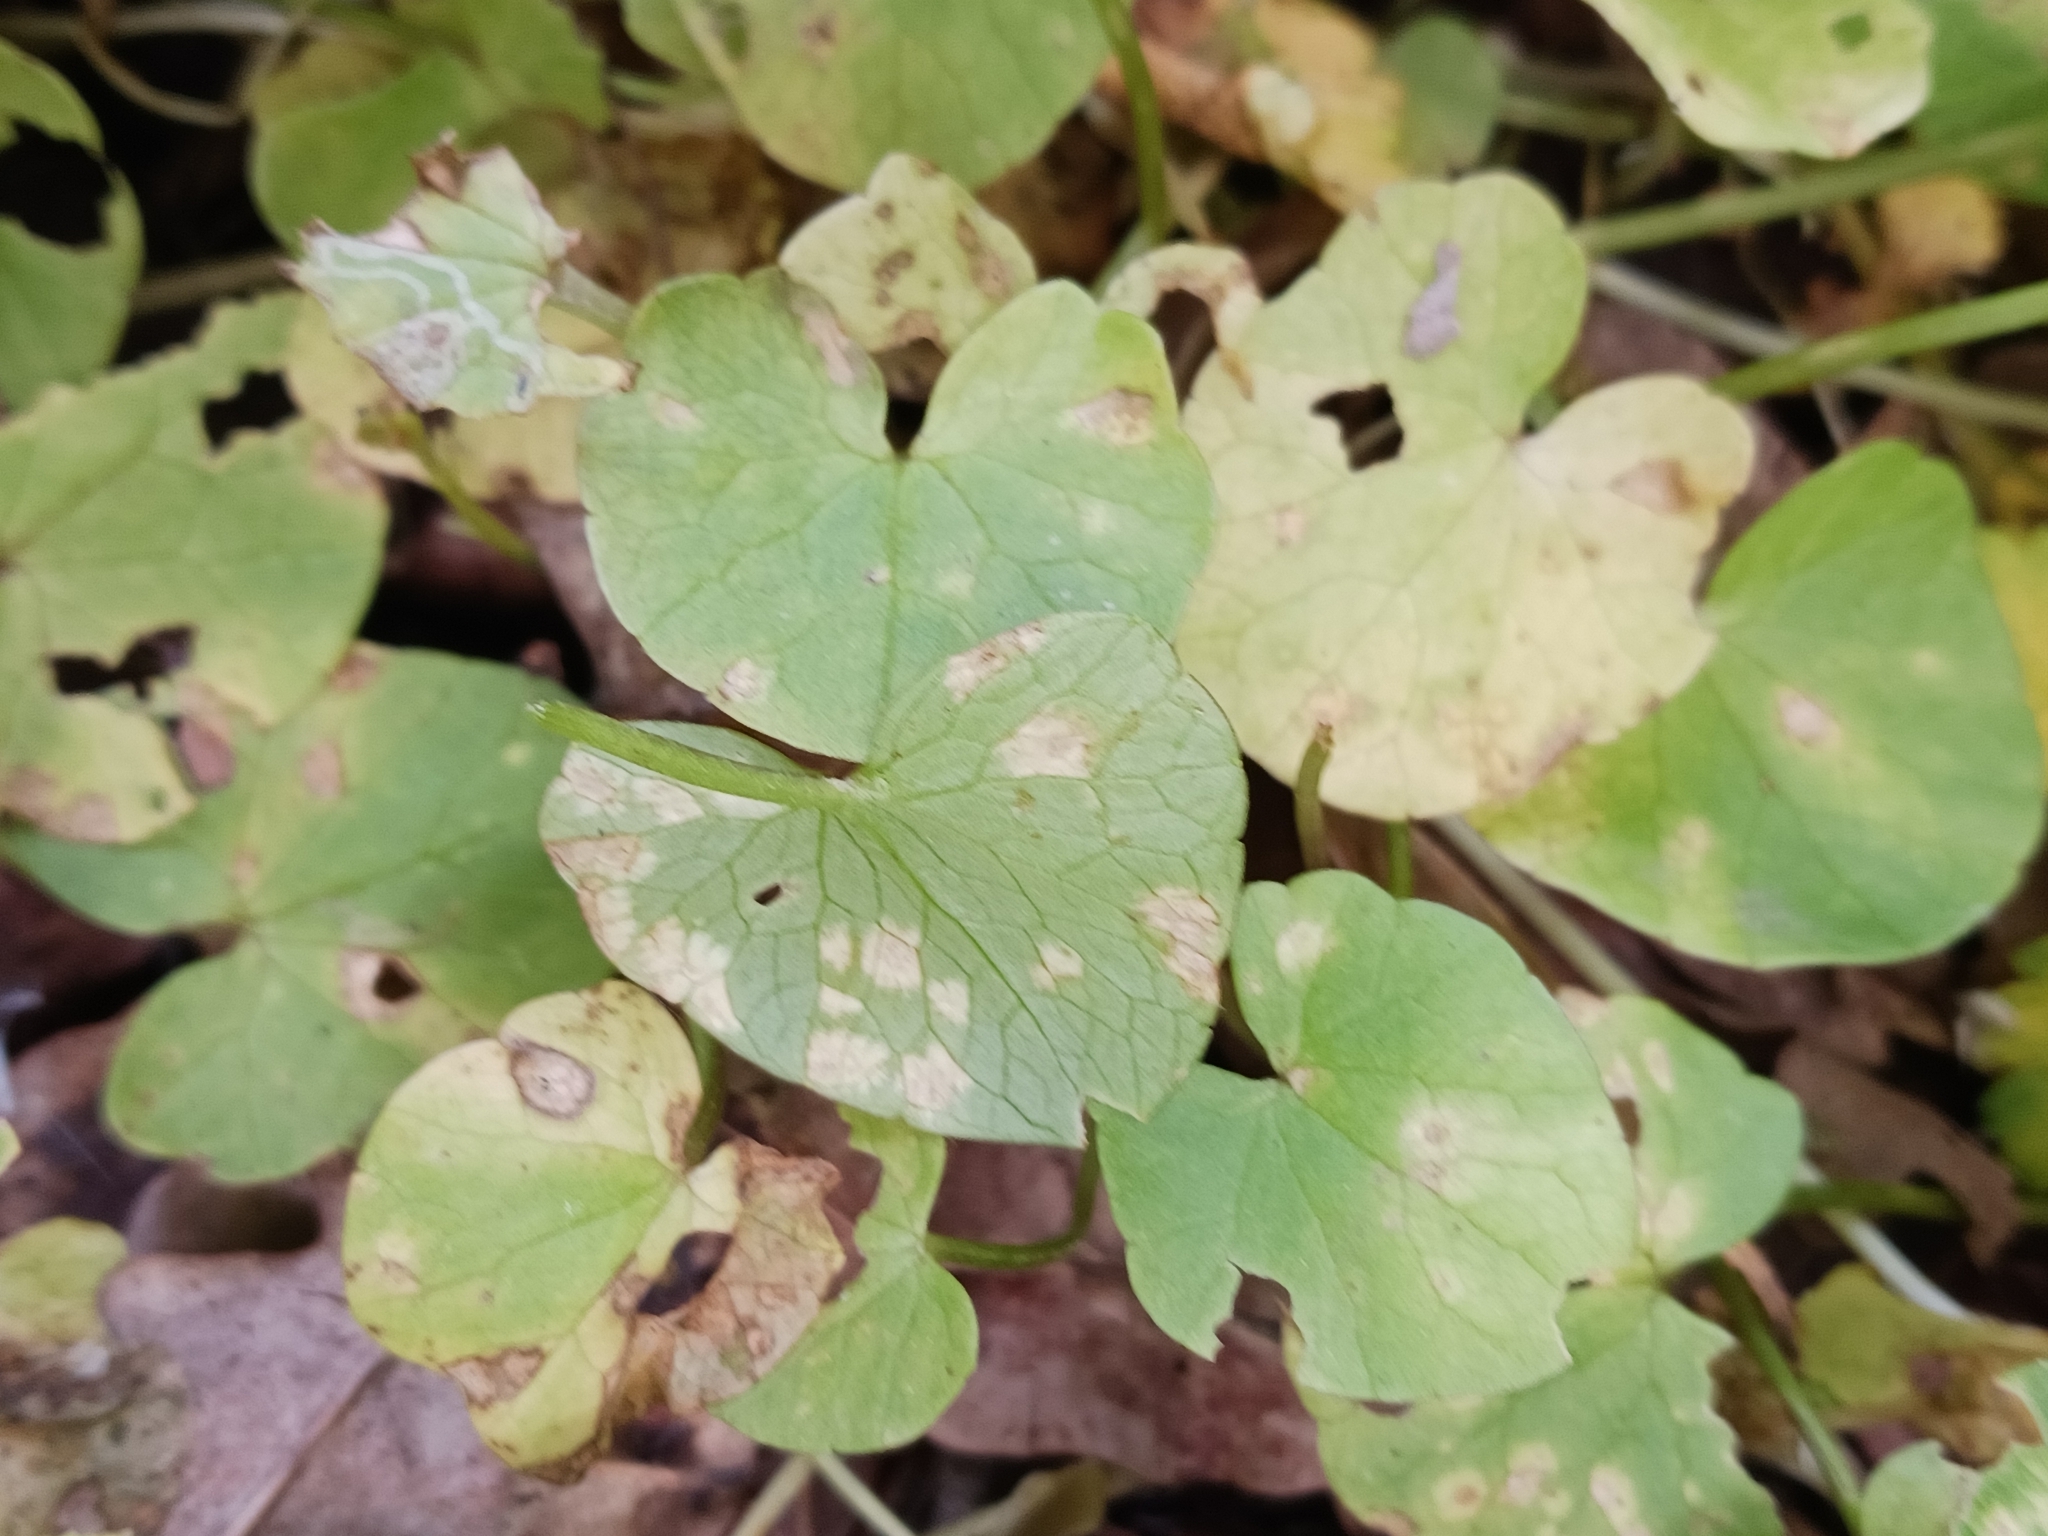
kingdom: Fungi
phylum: Basidiomycota
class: Exobasidiomycetes
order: Entylomatales
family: Entylomataceae
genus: Entyloma
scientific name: Entyloma ficariae
